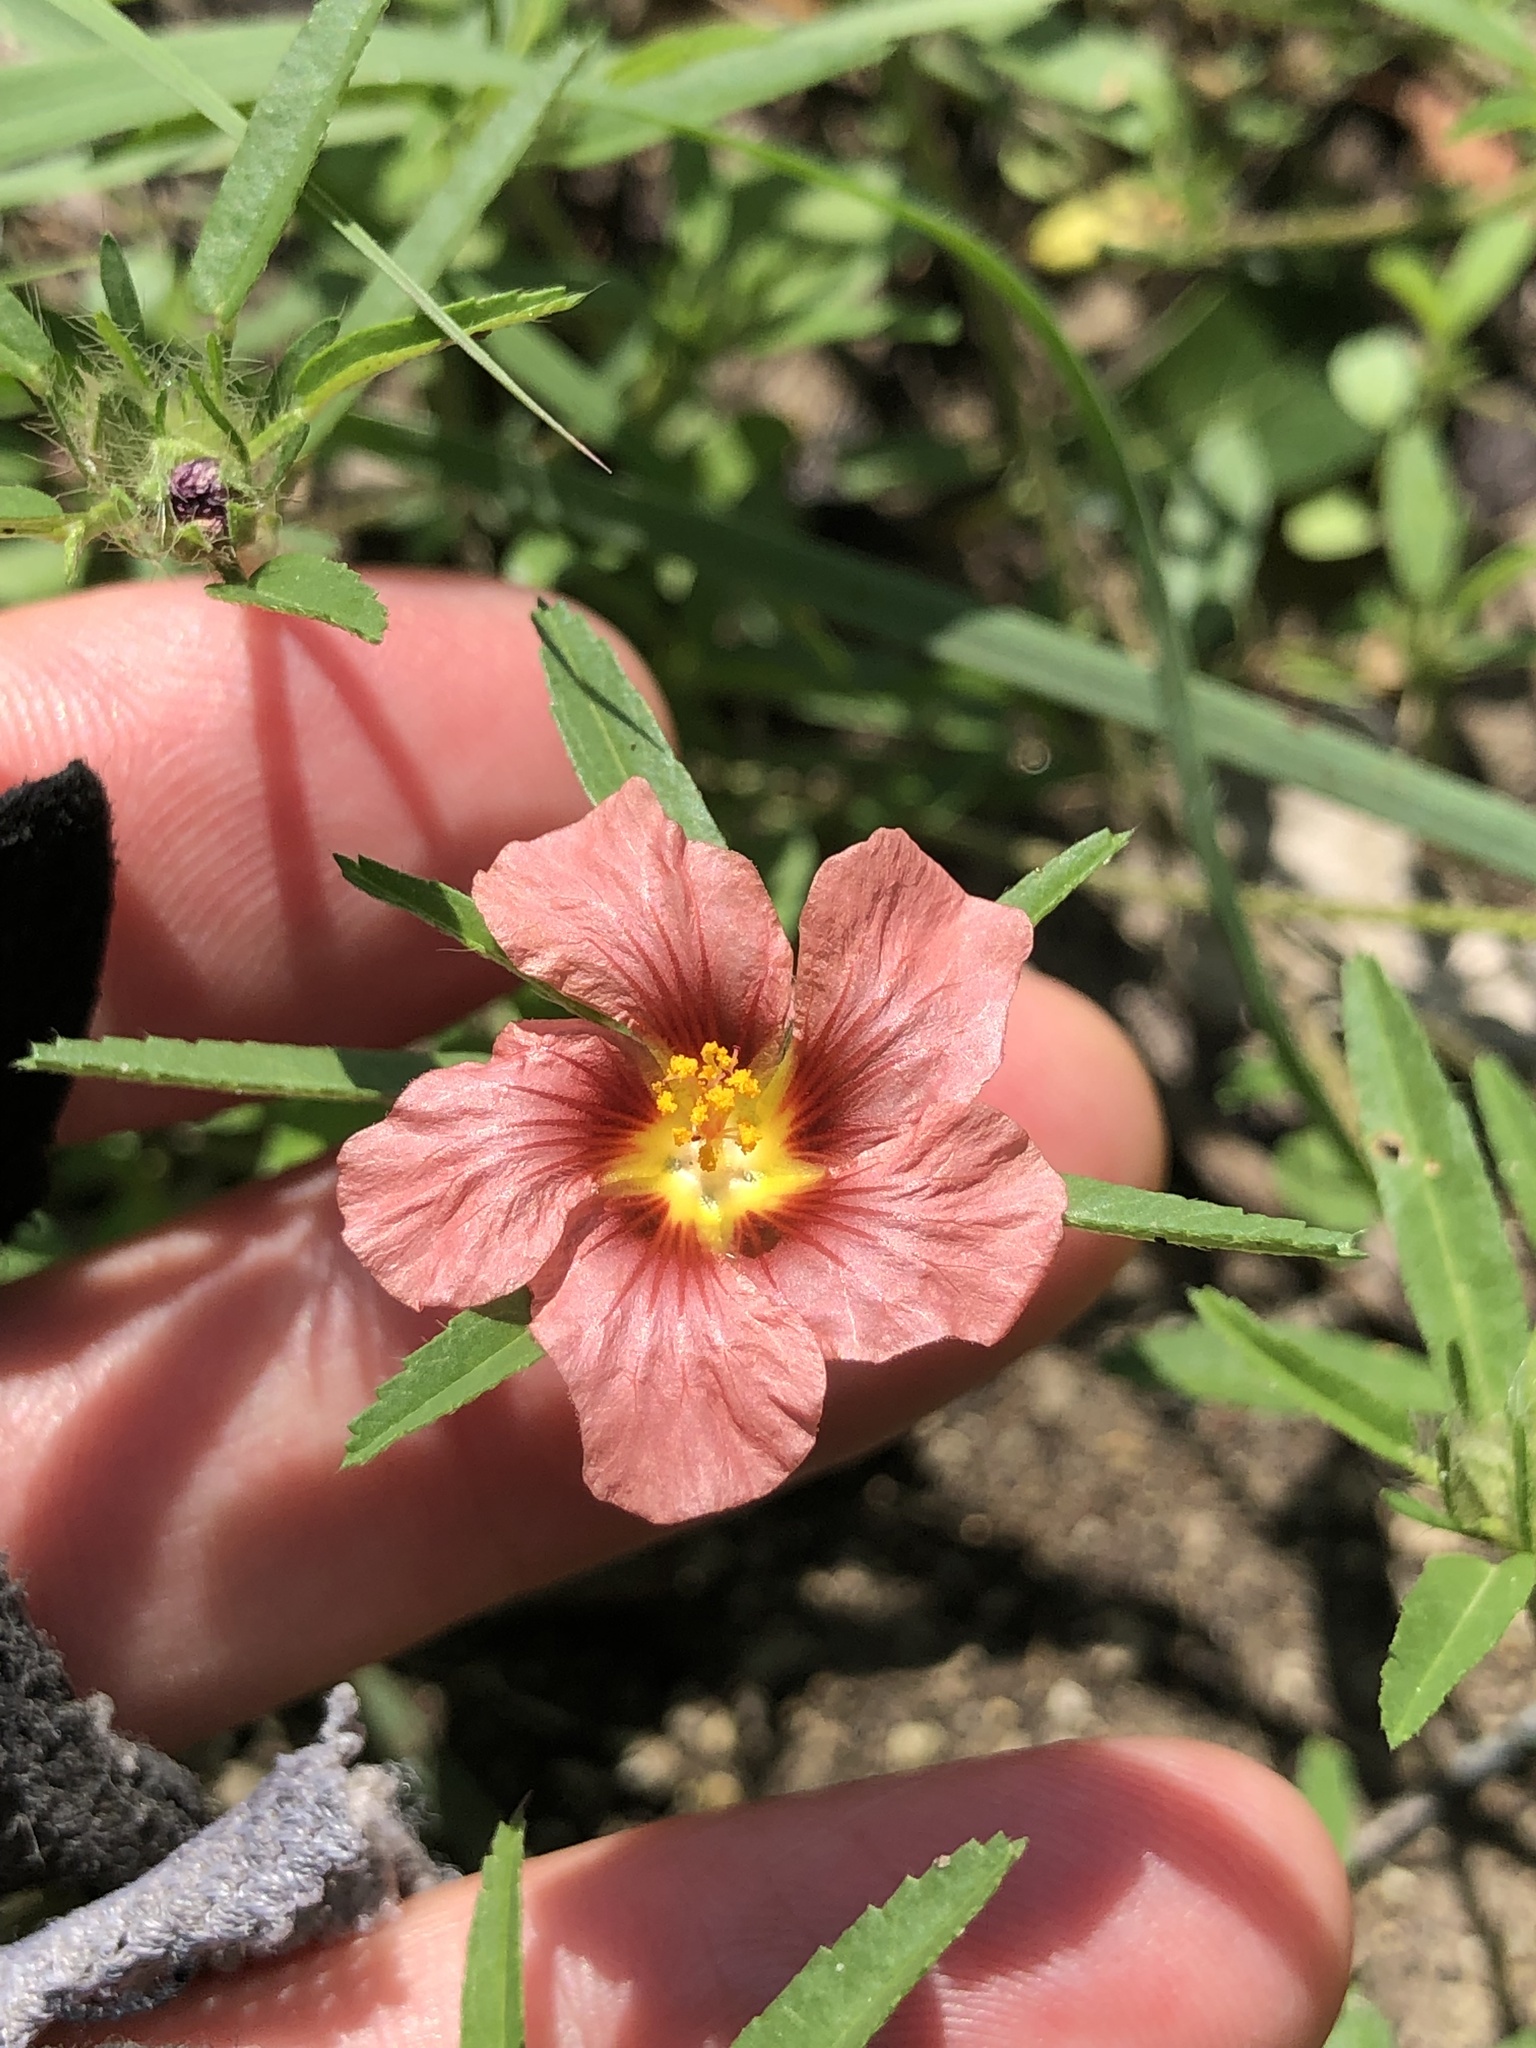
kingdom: Plantae
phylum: Tracheophyta
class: Magnoliopsida
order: Malvales
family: Malvaceae
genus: Sida
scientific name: Sida ciliaris
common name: Bracted fanpetals
